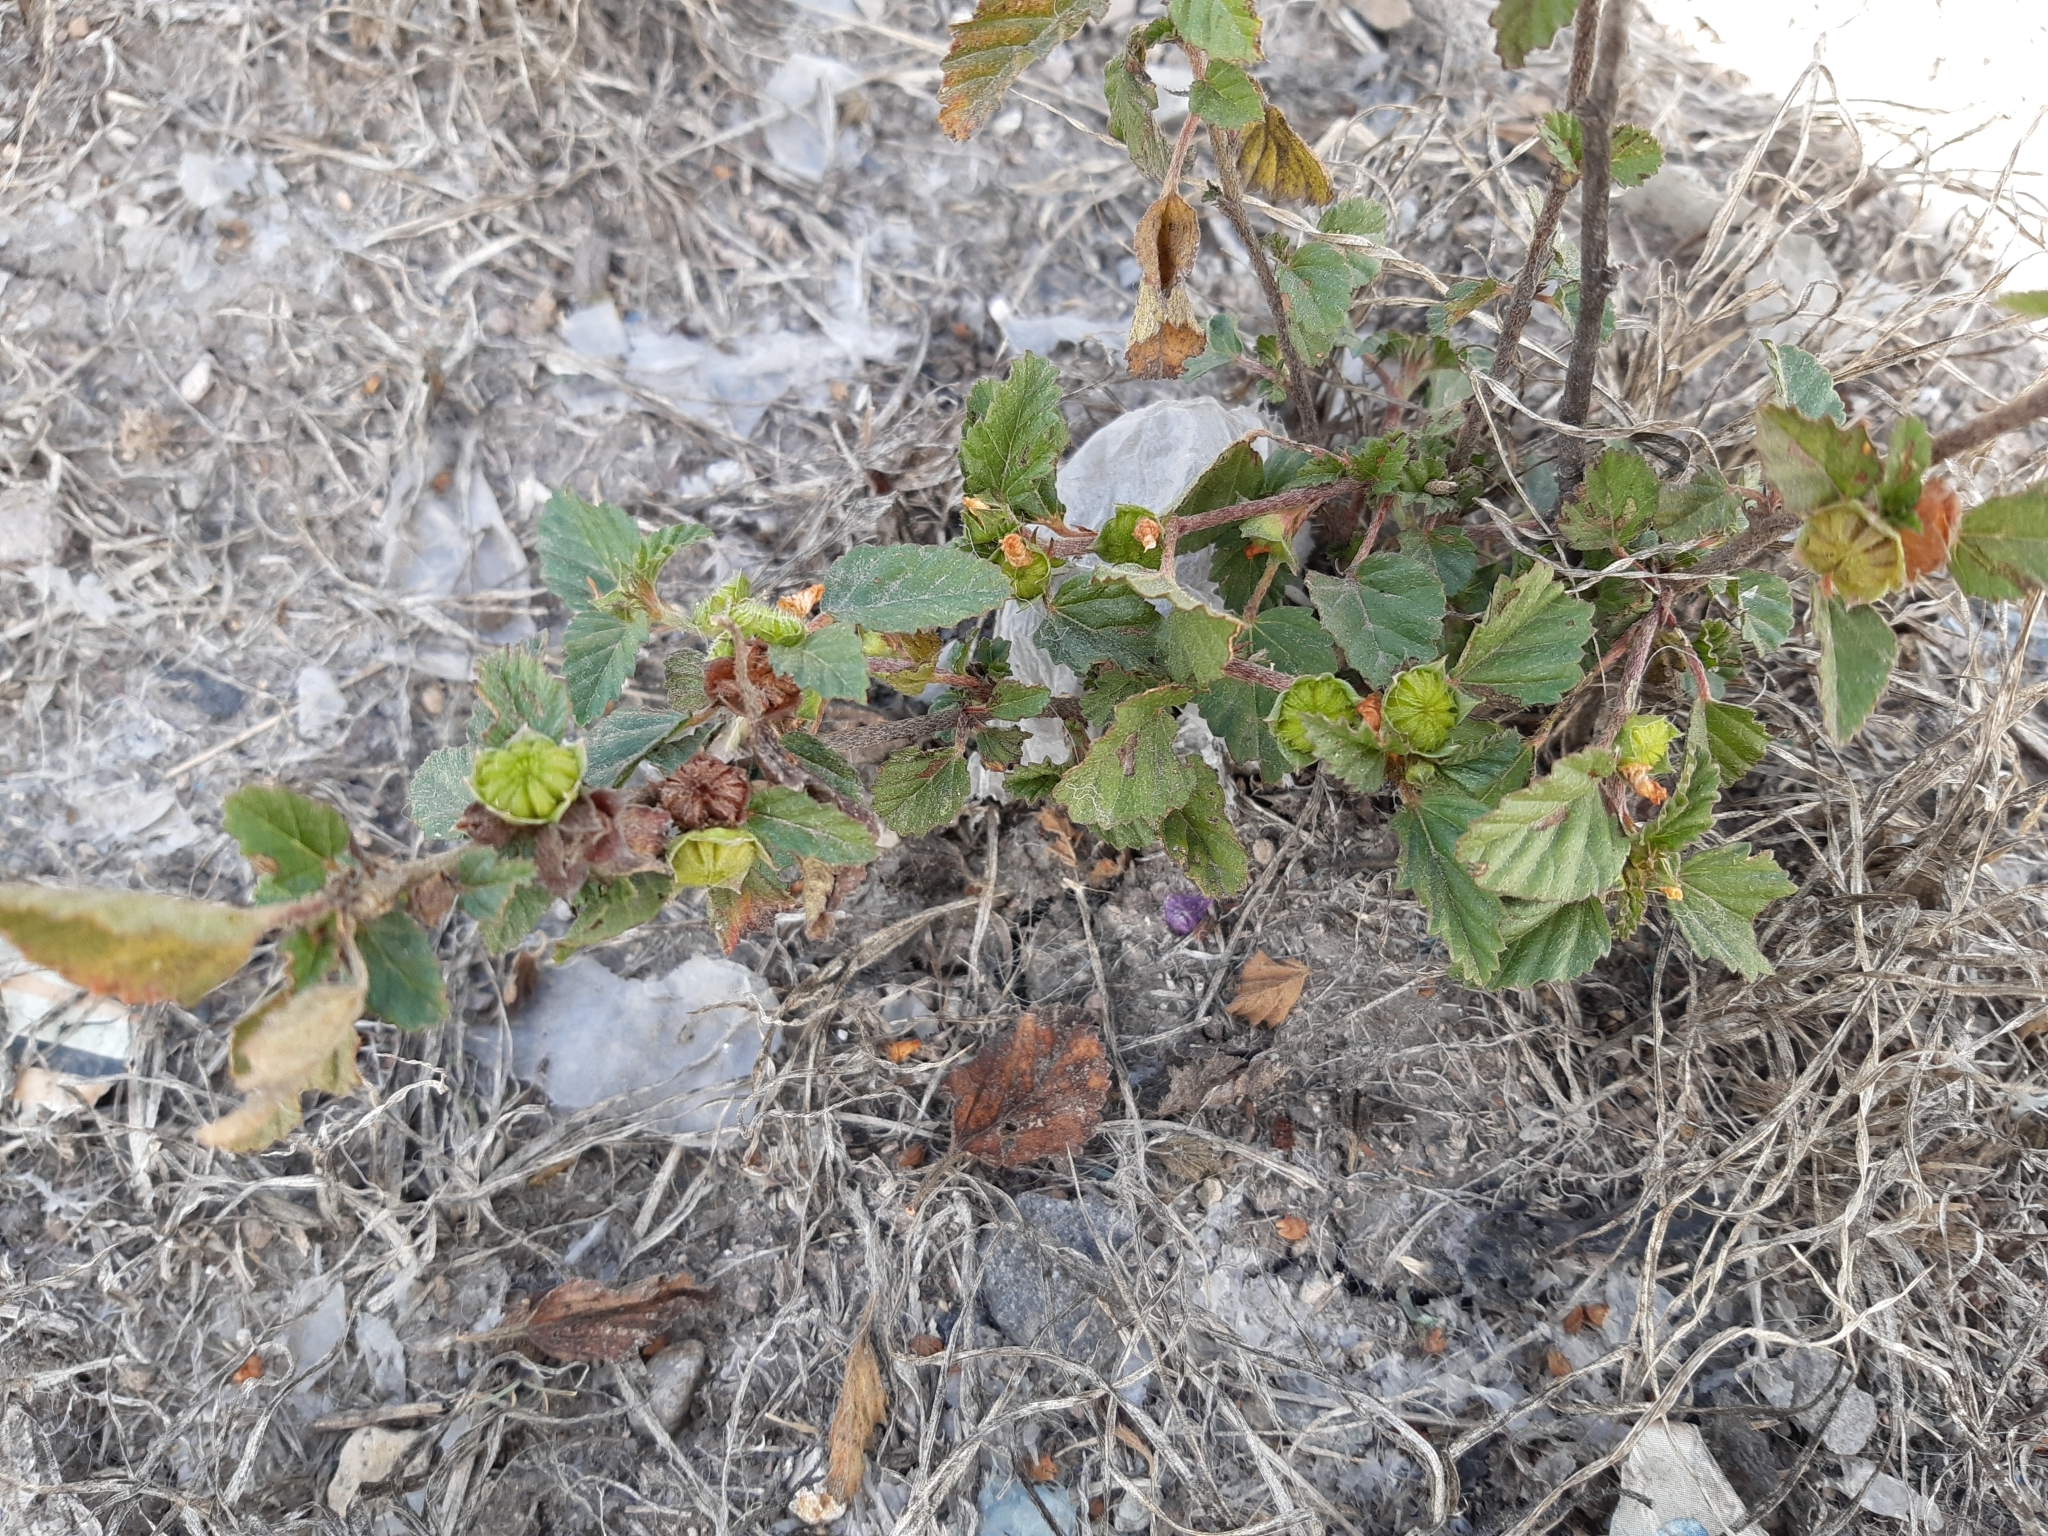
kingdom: Plantae
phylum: Tracheophyta
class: Magnoliopsida
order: Malvales
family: Malvaceae
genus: Malvastrum
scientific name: Malvastrum coromandelianum
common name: Threelobe false mallow
